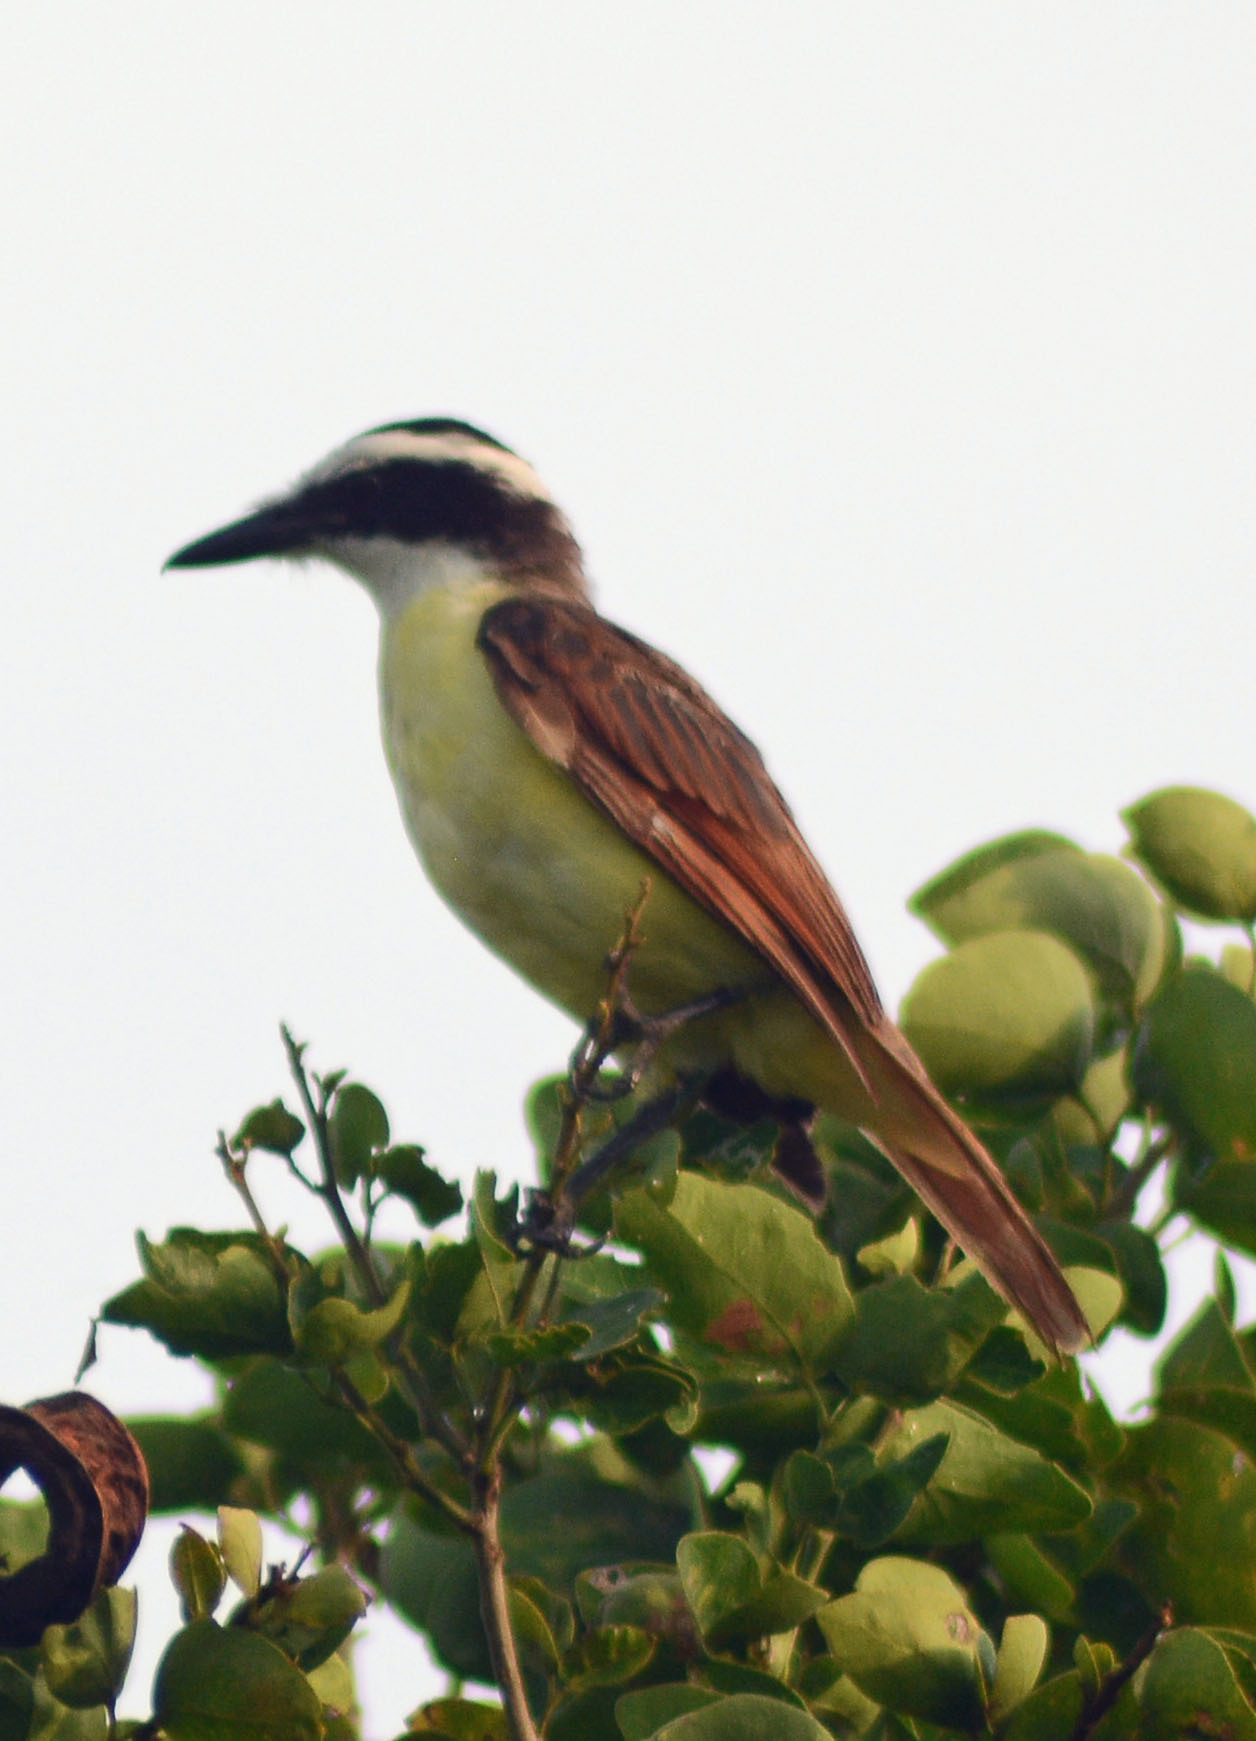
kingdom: Animalia
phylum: Chordata
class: Aves
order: Passeriformes
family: Tyrannidae
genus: Pitangus
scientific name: Pitangus sulphuratus
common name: Great kiskadee
